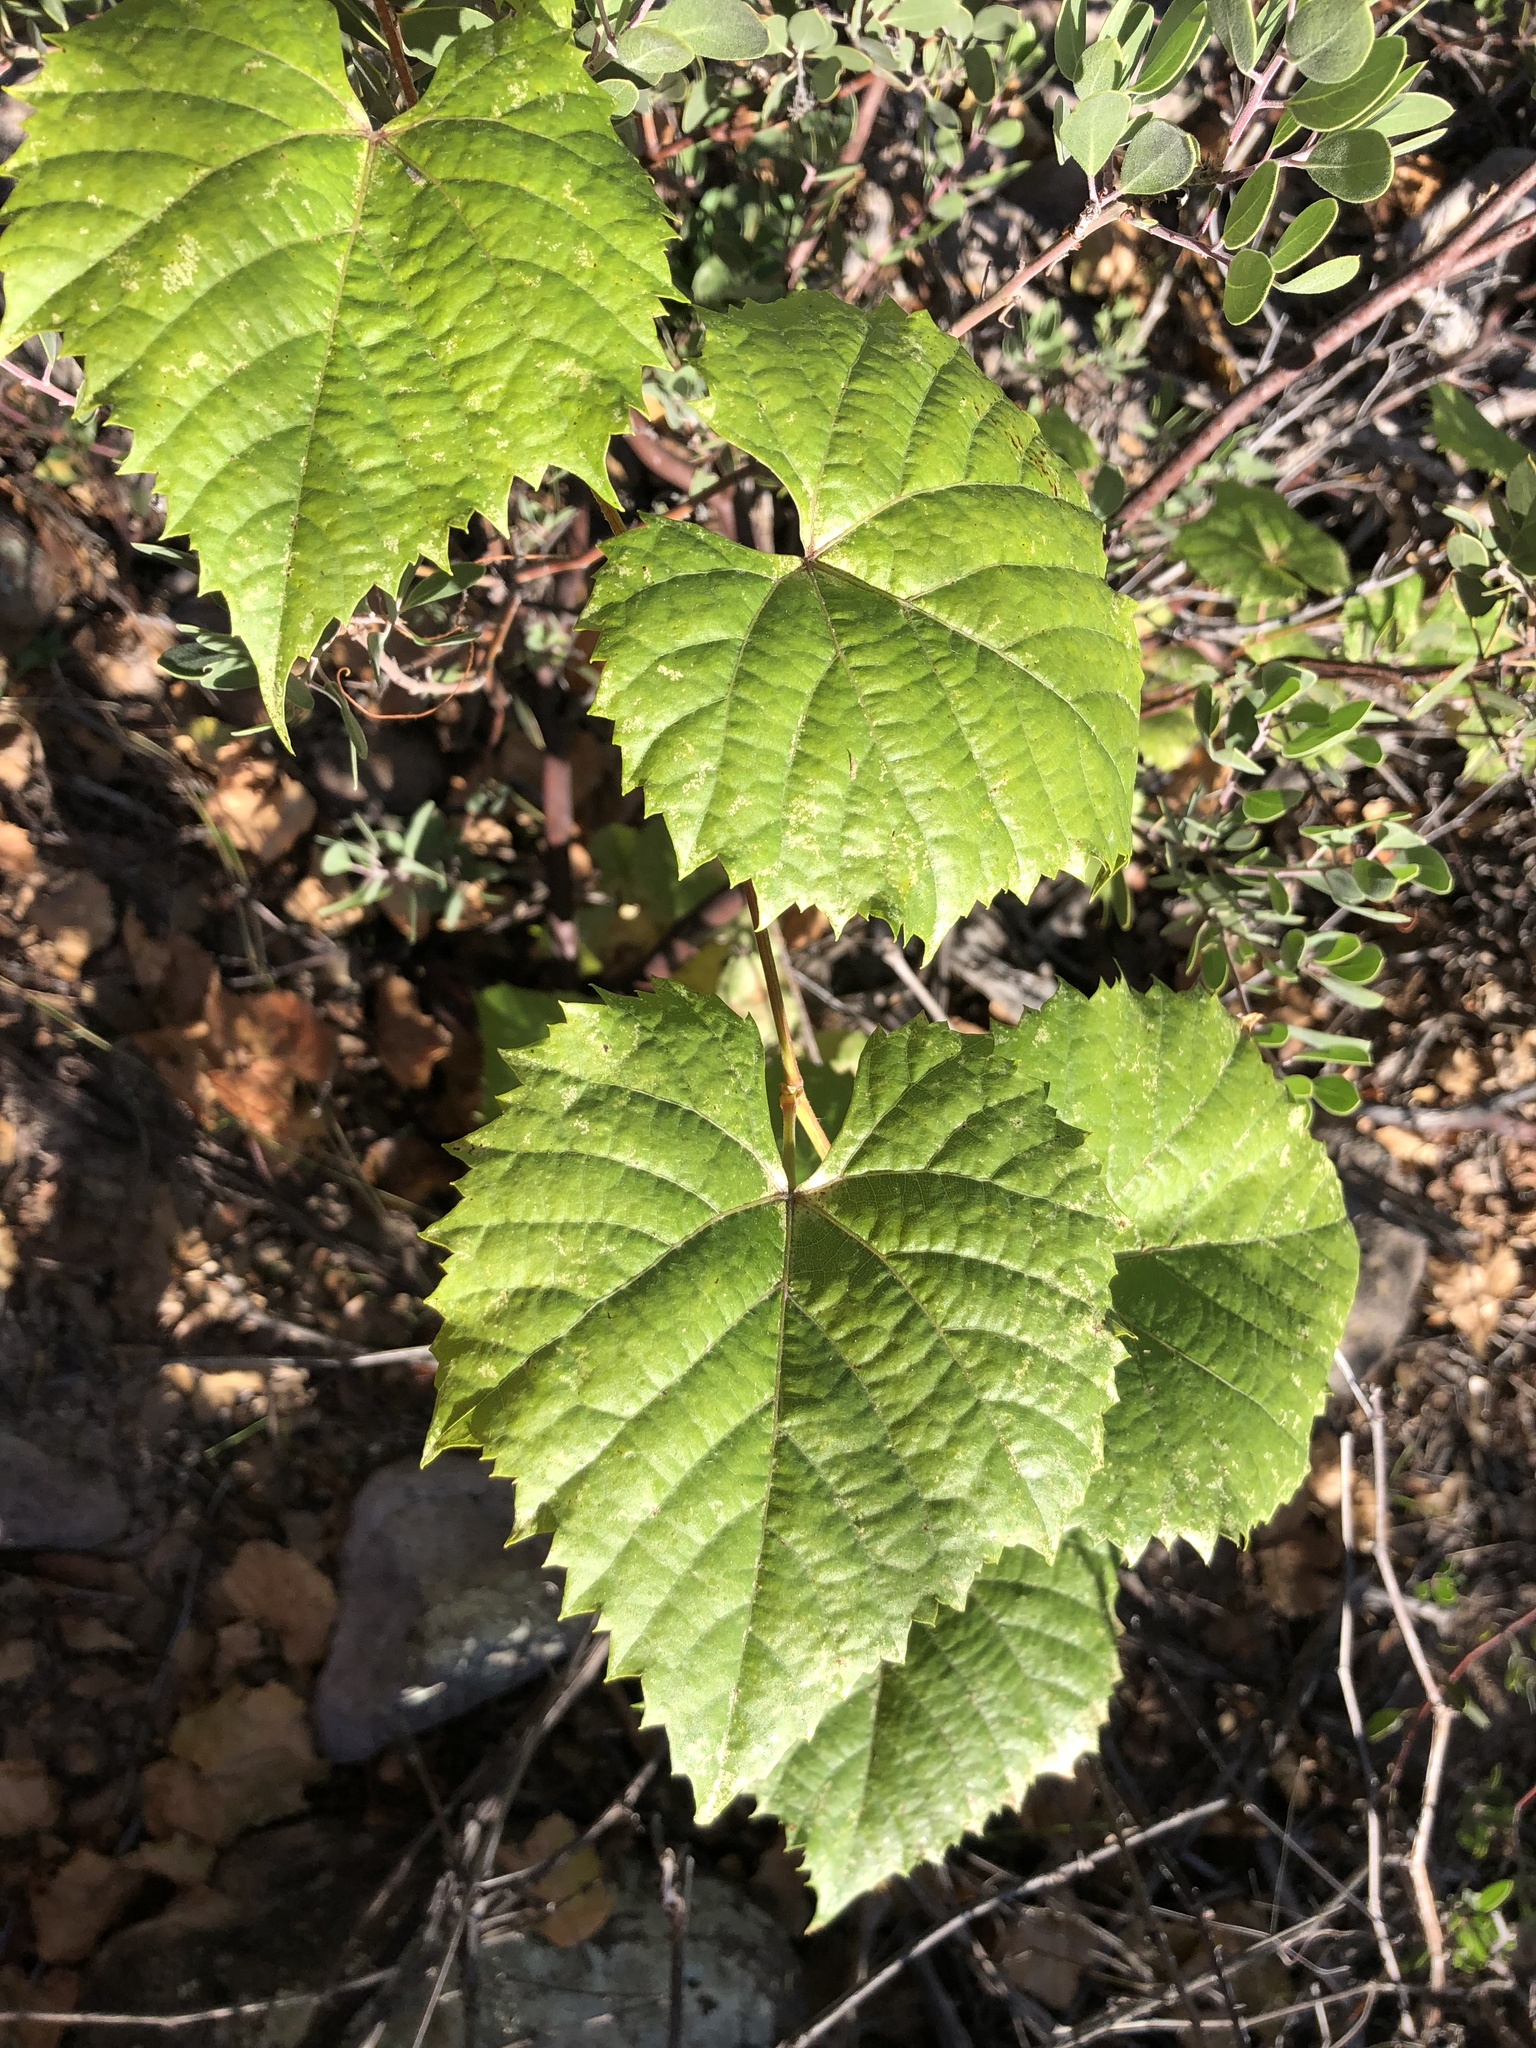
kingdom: Plantae
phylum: Tracheophyta
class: Magnoliopsida
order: Vitales
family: Vitaceae
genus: Vitis
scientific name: Vitis arizonica
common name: Canyon grape
